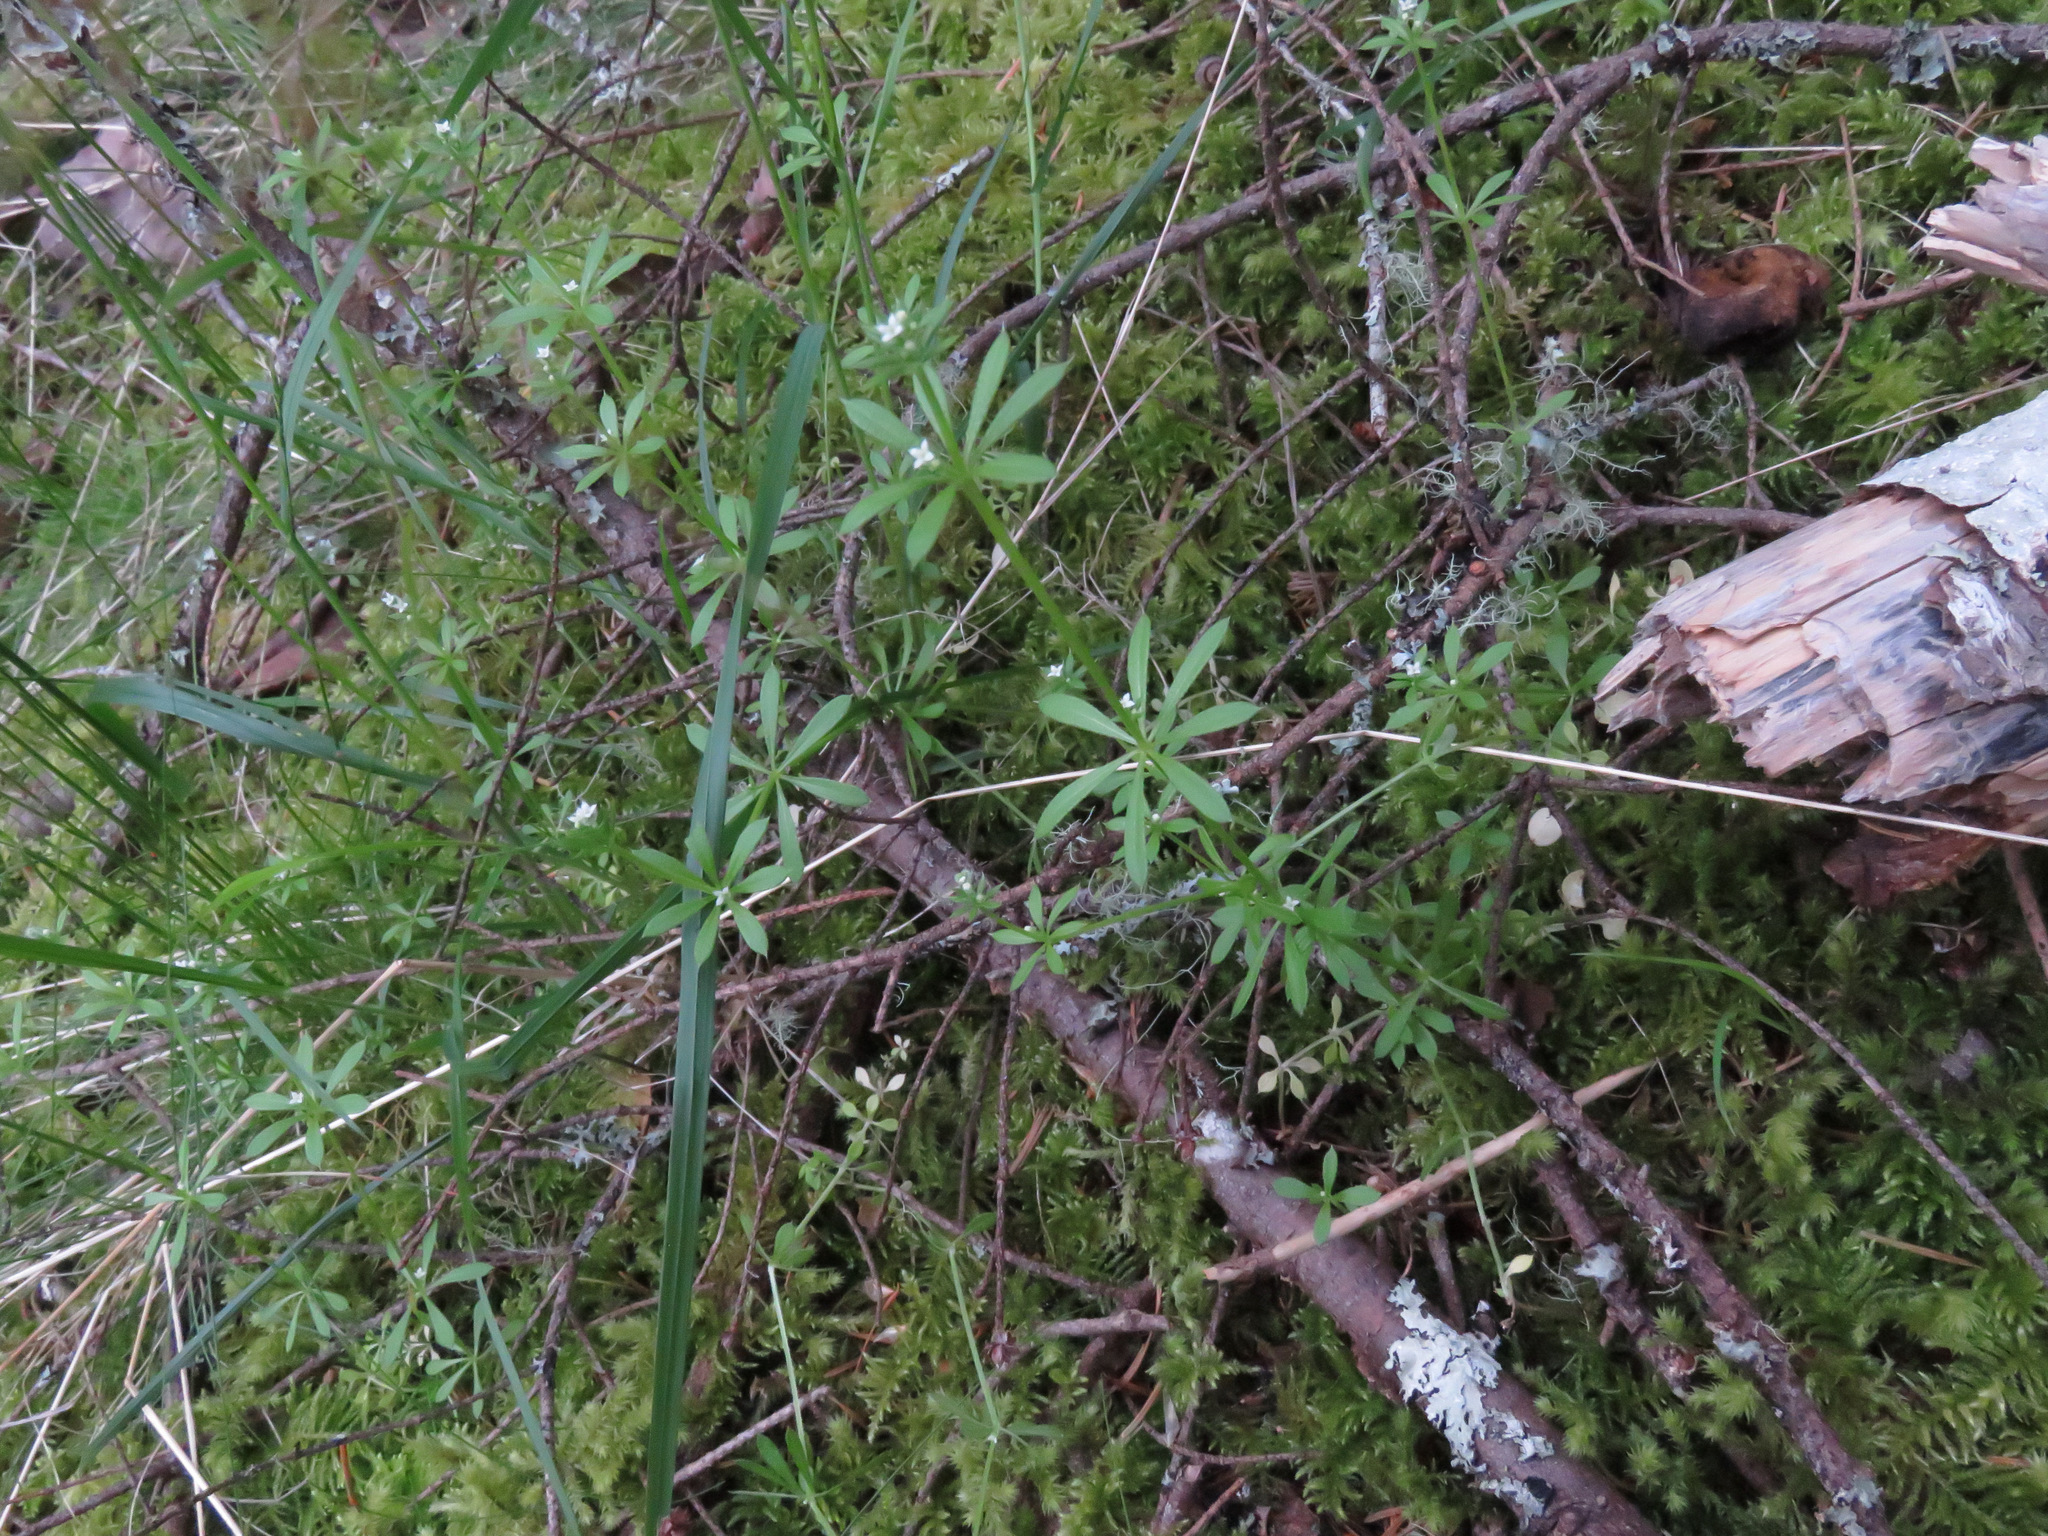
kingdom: Plantae
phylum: Tracheophyta
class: Magnoliopsida
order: Gentianales
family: Rubiaceae
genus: Galium
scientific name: Galium aparine
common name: Cleavers
